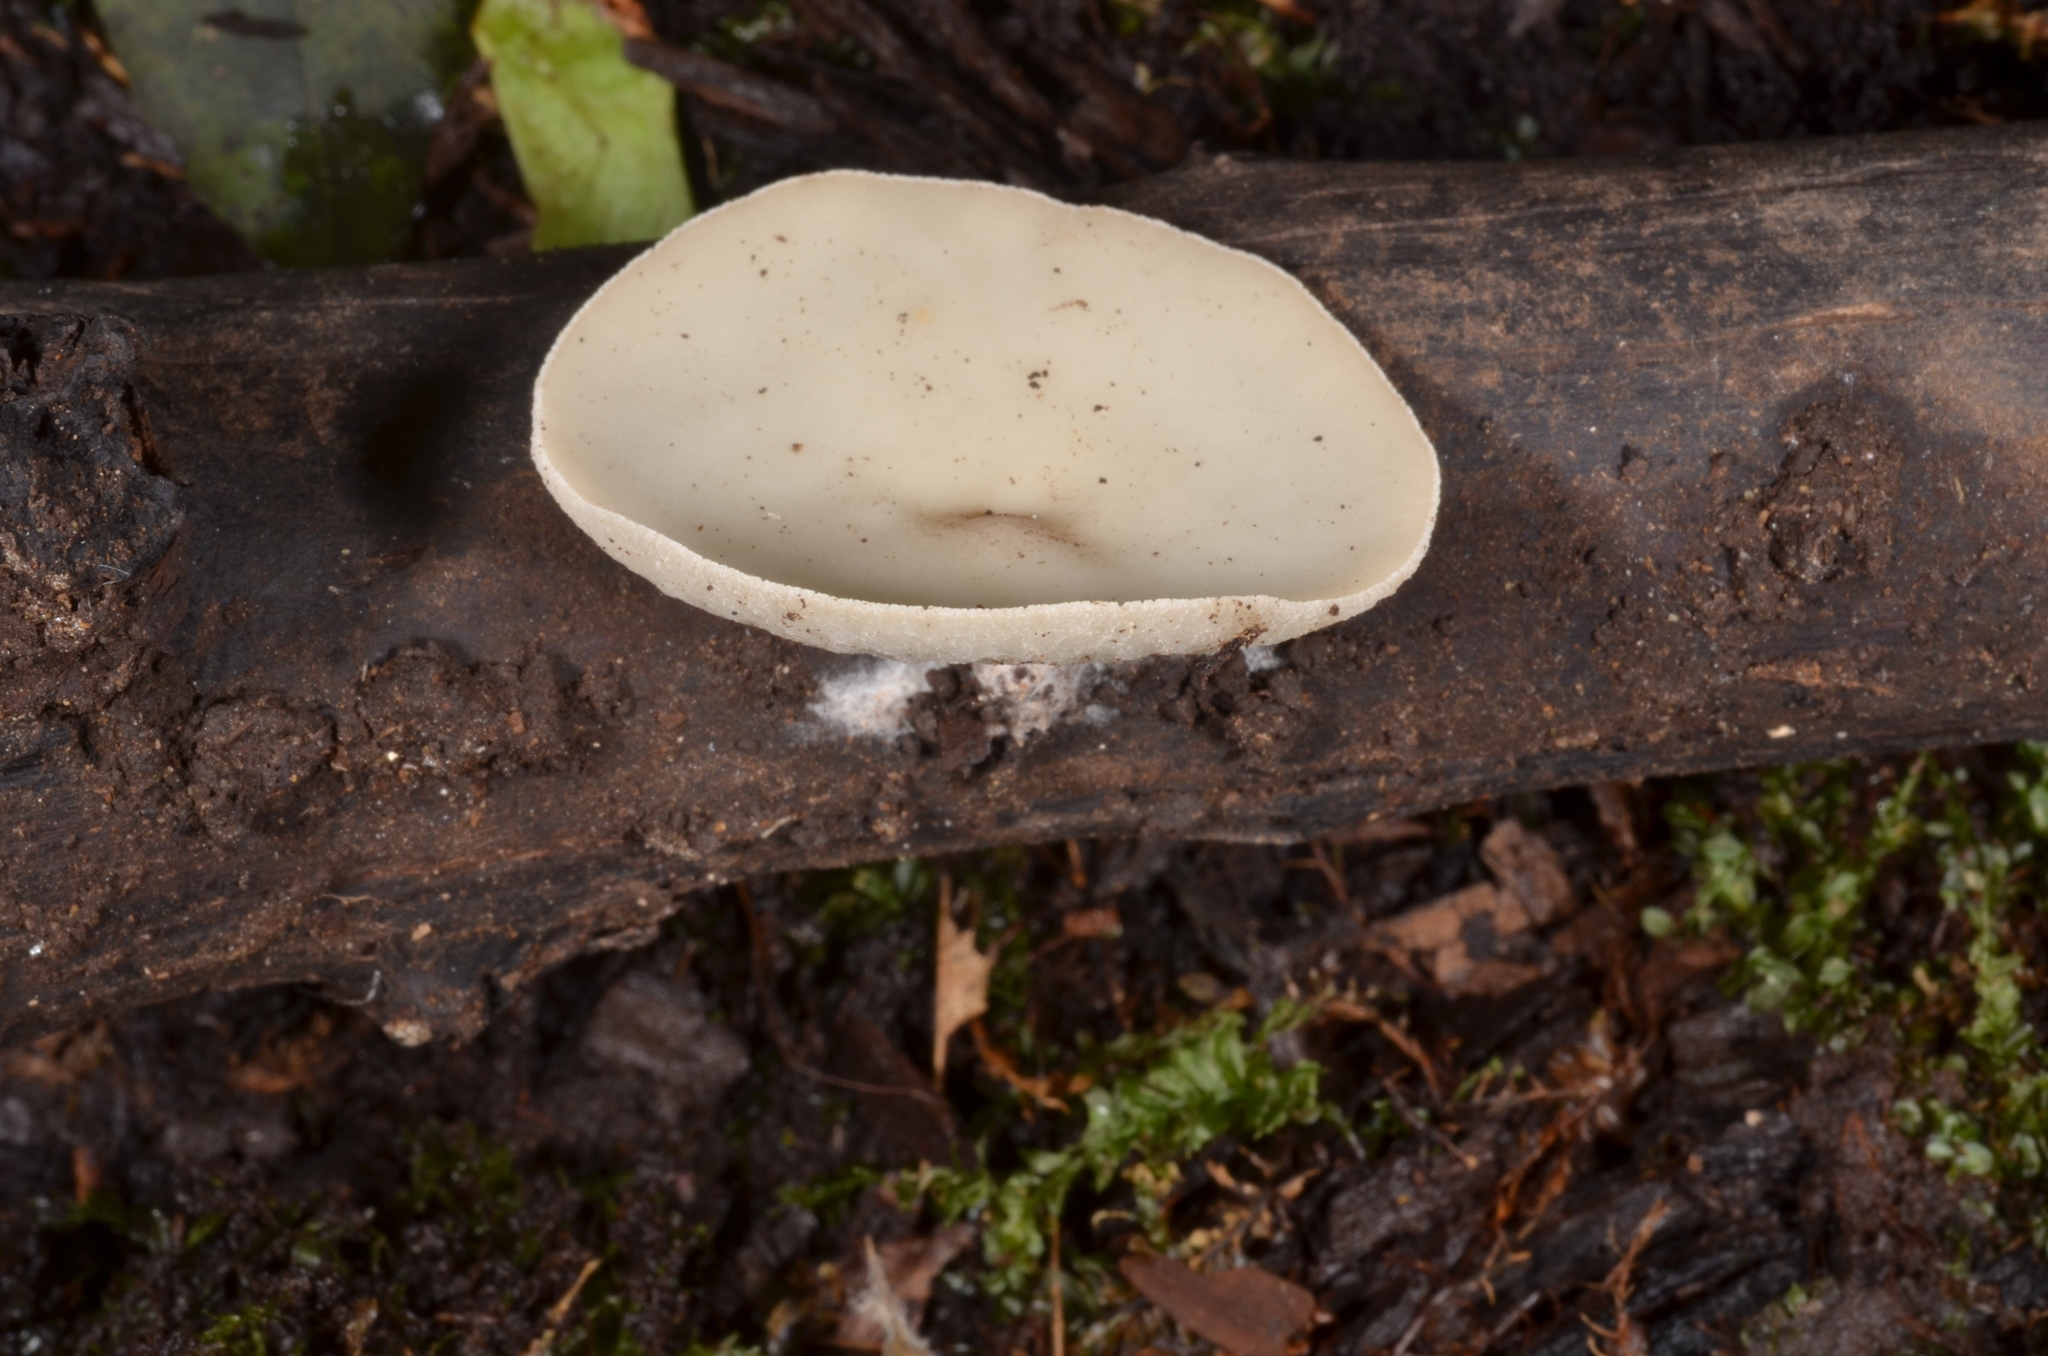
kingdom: Fungi
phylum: Ascomycota
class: Pezizomycetes
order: Pezizales
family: Sarcoscyphaceae
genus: Sarcoscypha
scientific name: Sarcoscypha vassiljevae
